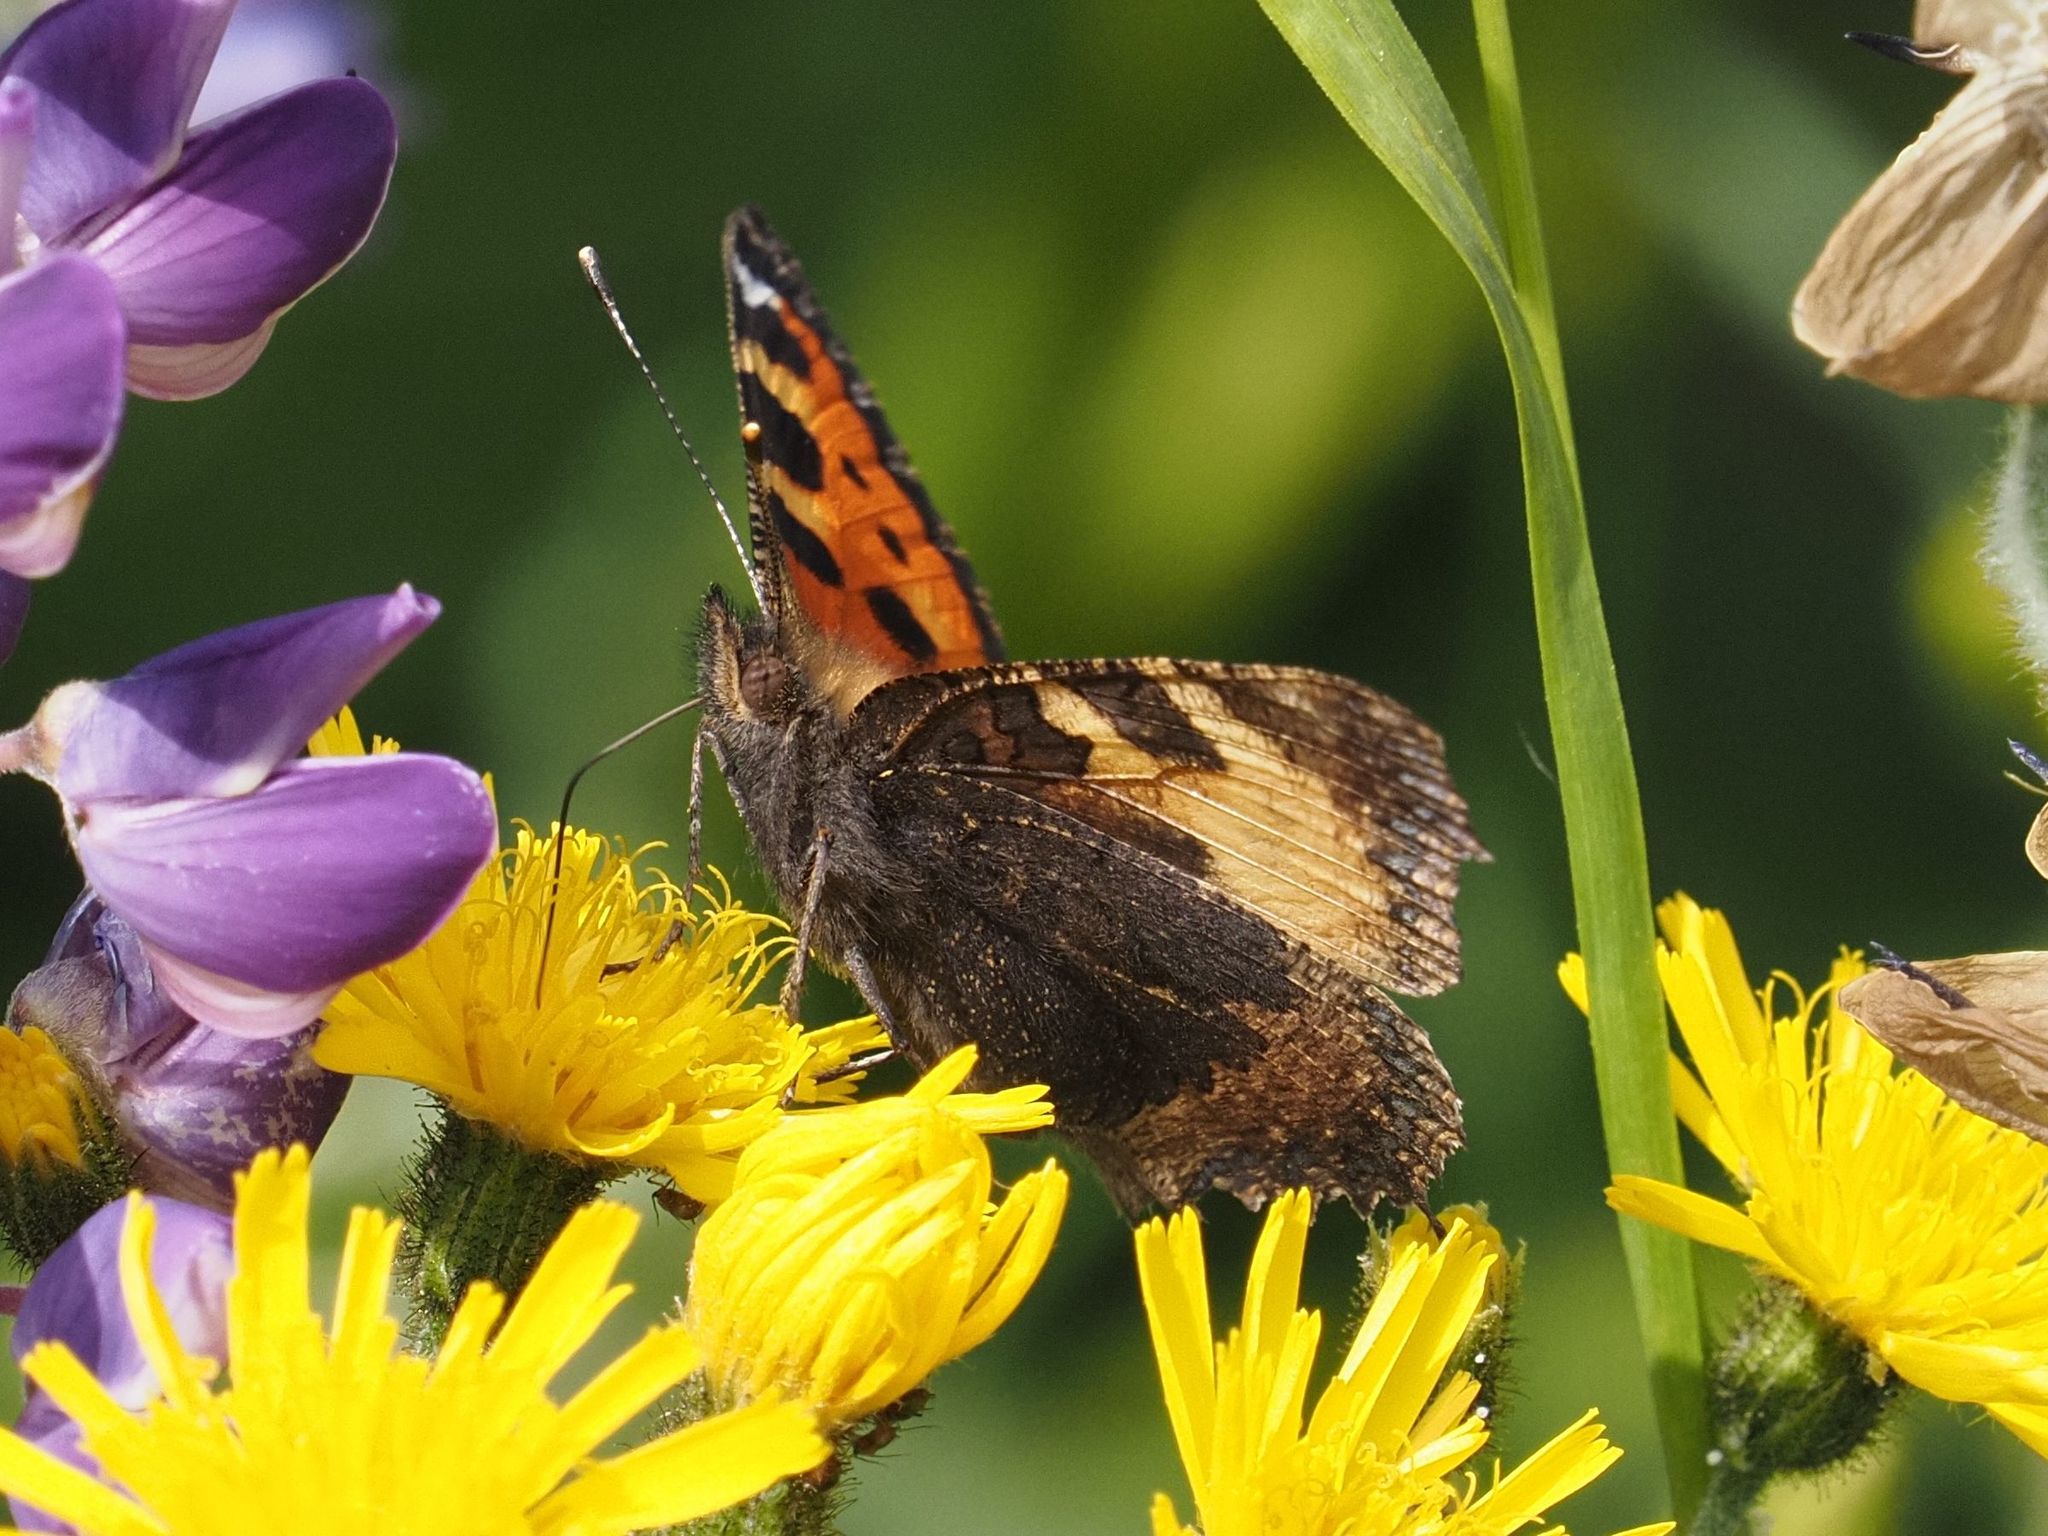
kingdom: Animalia
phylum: Arthropoda
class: Insecta
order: Lepidoptera
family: Nymphalidae
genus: Aglais
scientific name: Aglais urticae
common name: Small tortoiseshell
